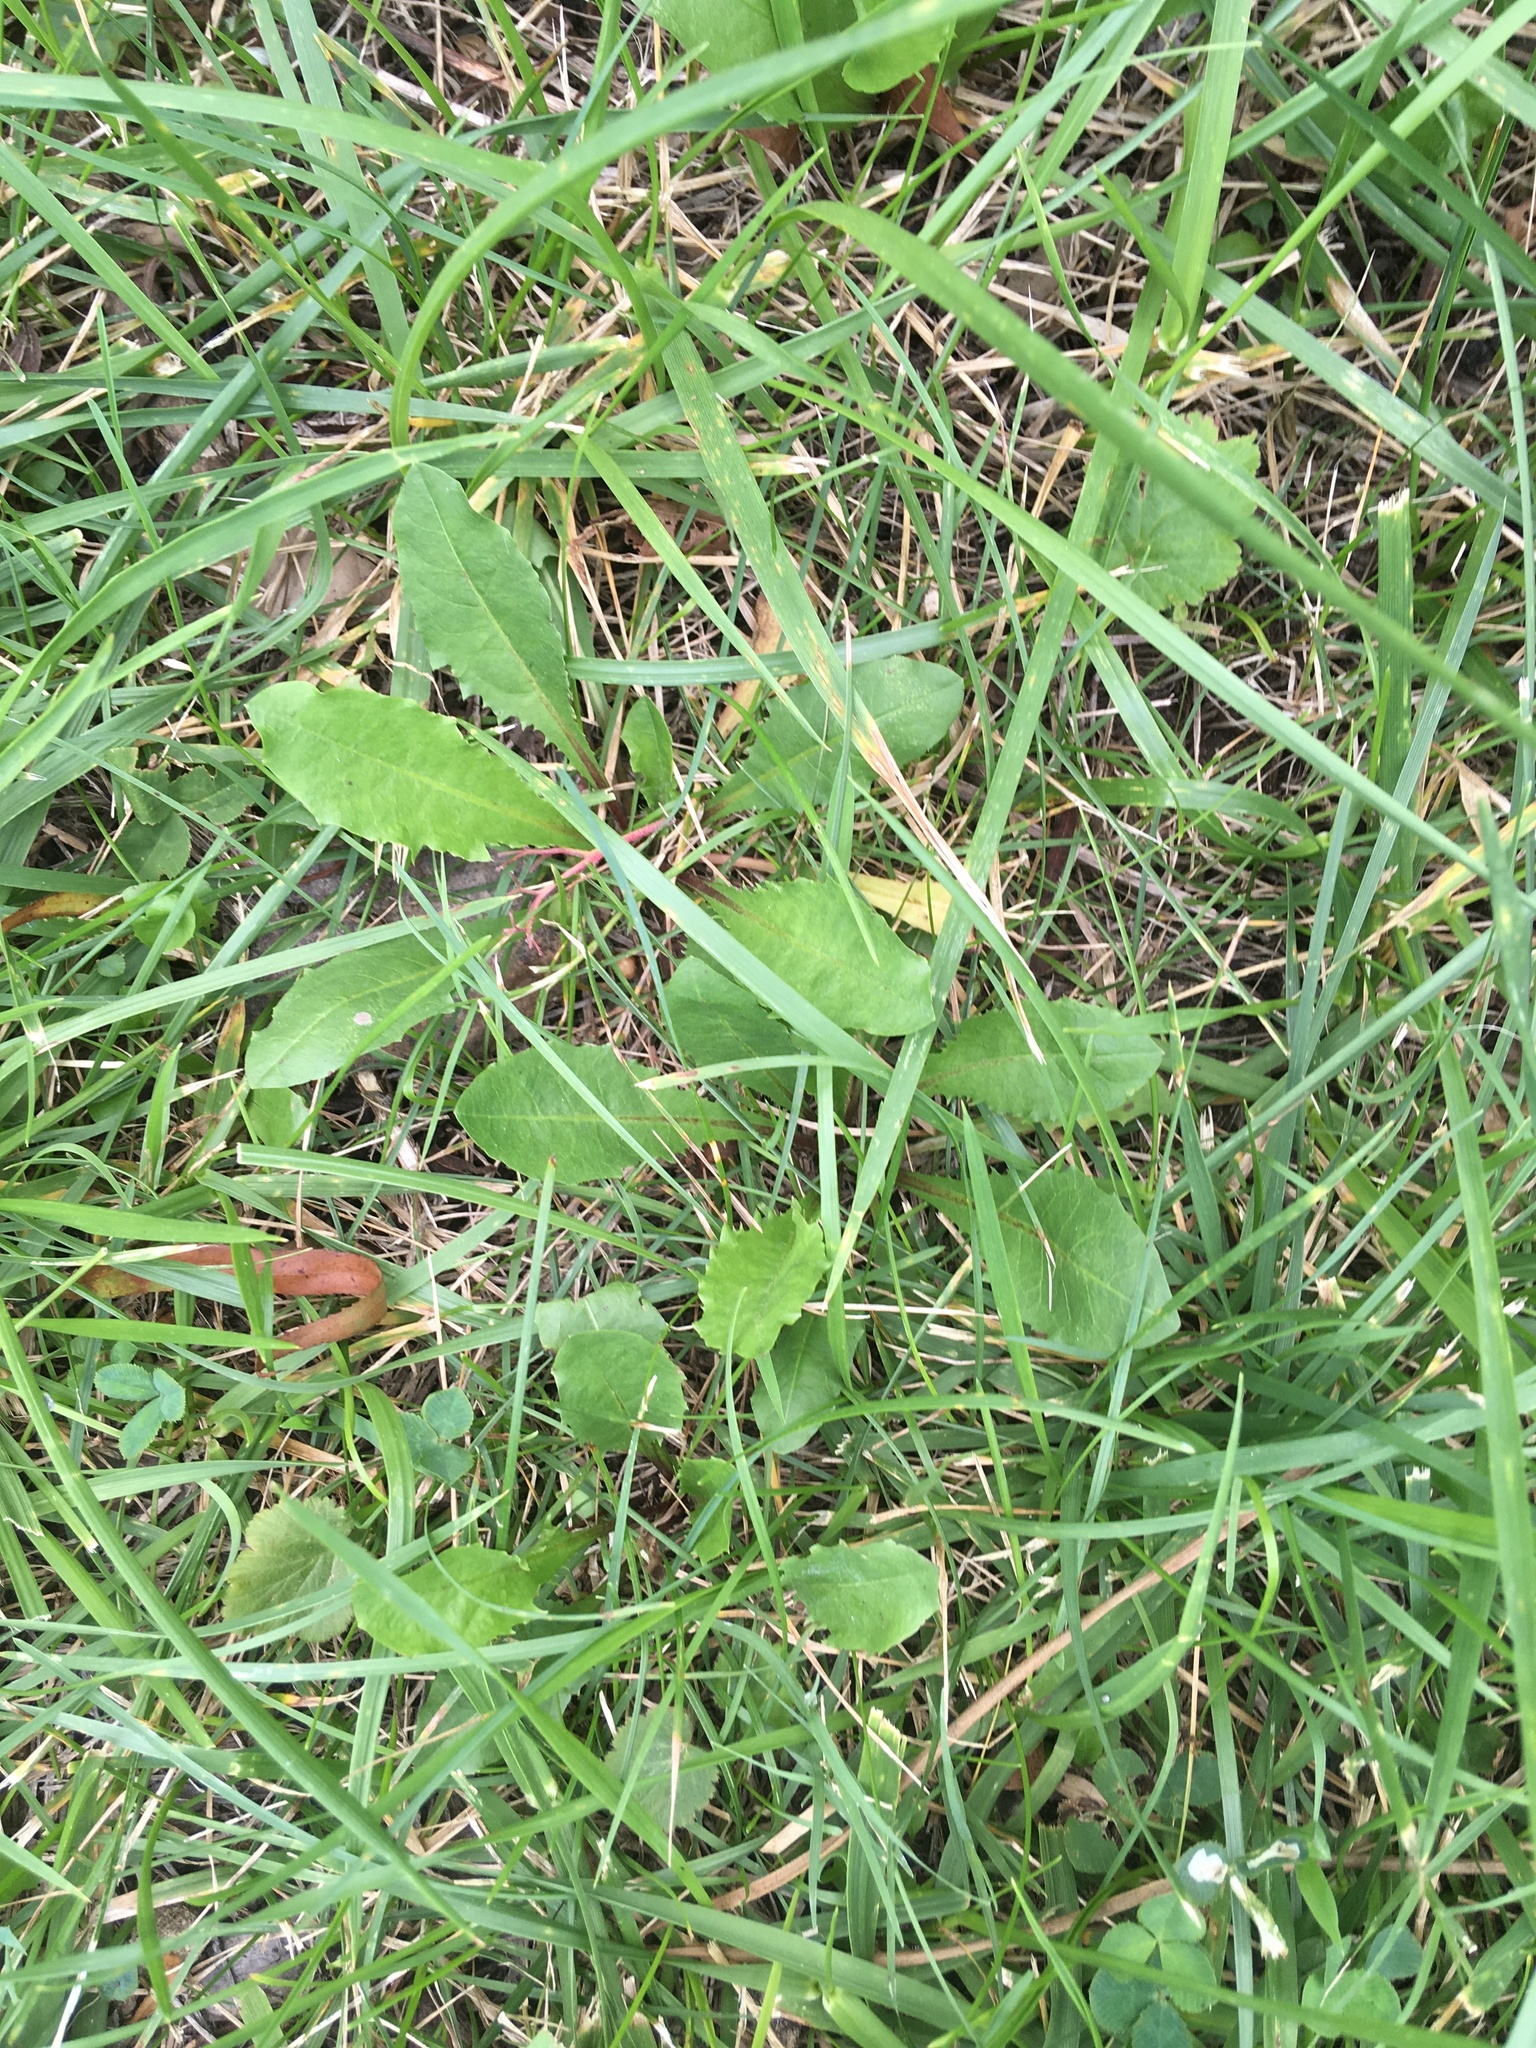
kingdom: Plantae
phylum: Tracheophyta
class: Magnoliopsida
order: Asterales
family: Asteraceae
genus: Taraxacum
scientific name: Taraxacum officinale
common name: Common dandelion
